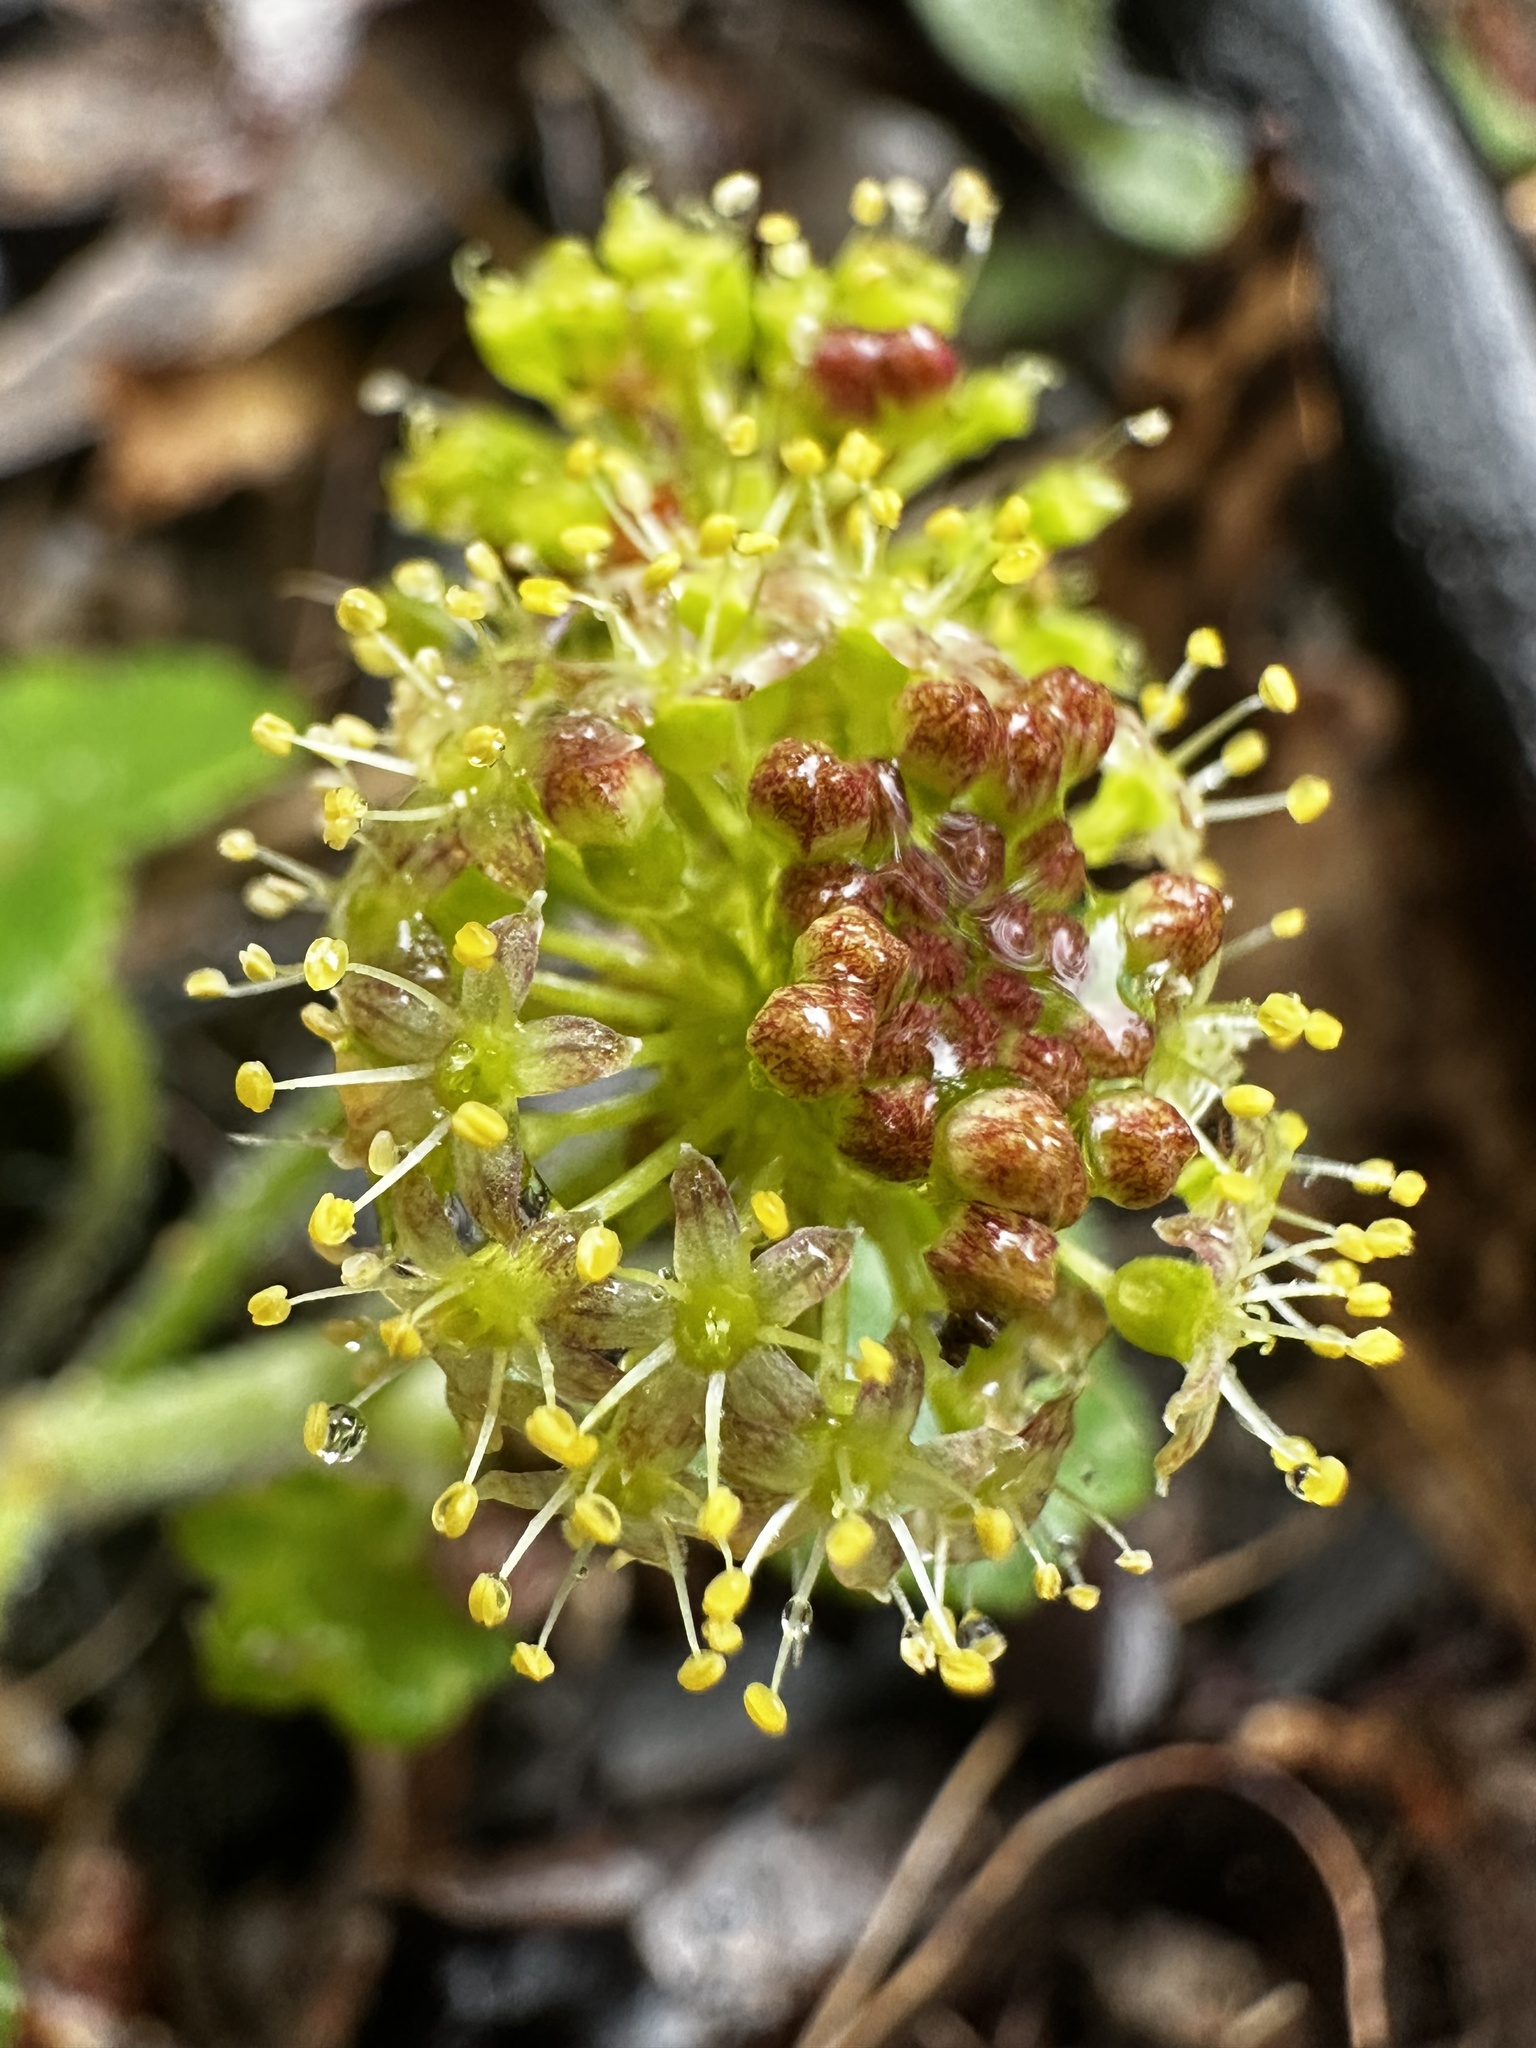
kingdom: Plantae
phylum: Tracheophyta
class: Magnoliopsida
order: Apiales
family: Araliaceae
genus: Hydrocotyle
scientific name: Hydrocotyle laxiflora
